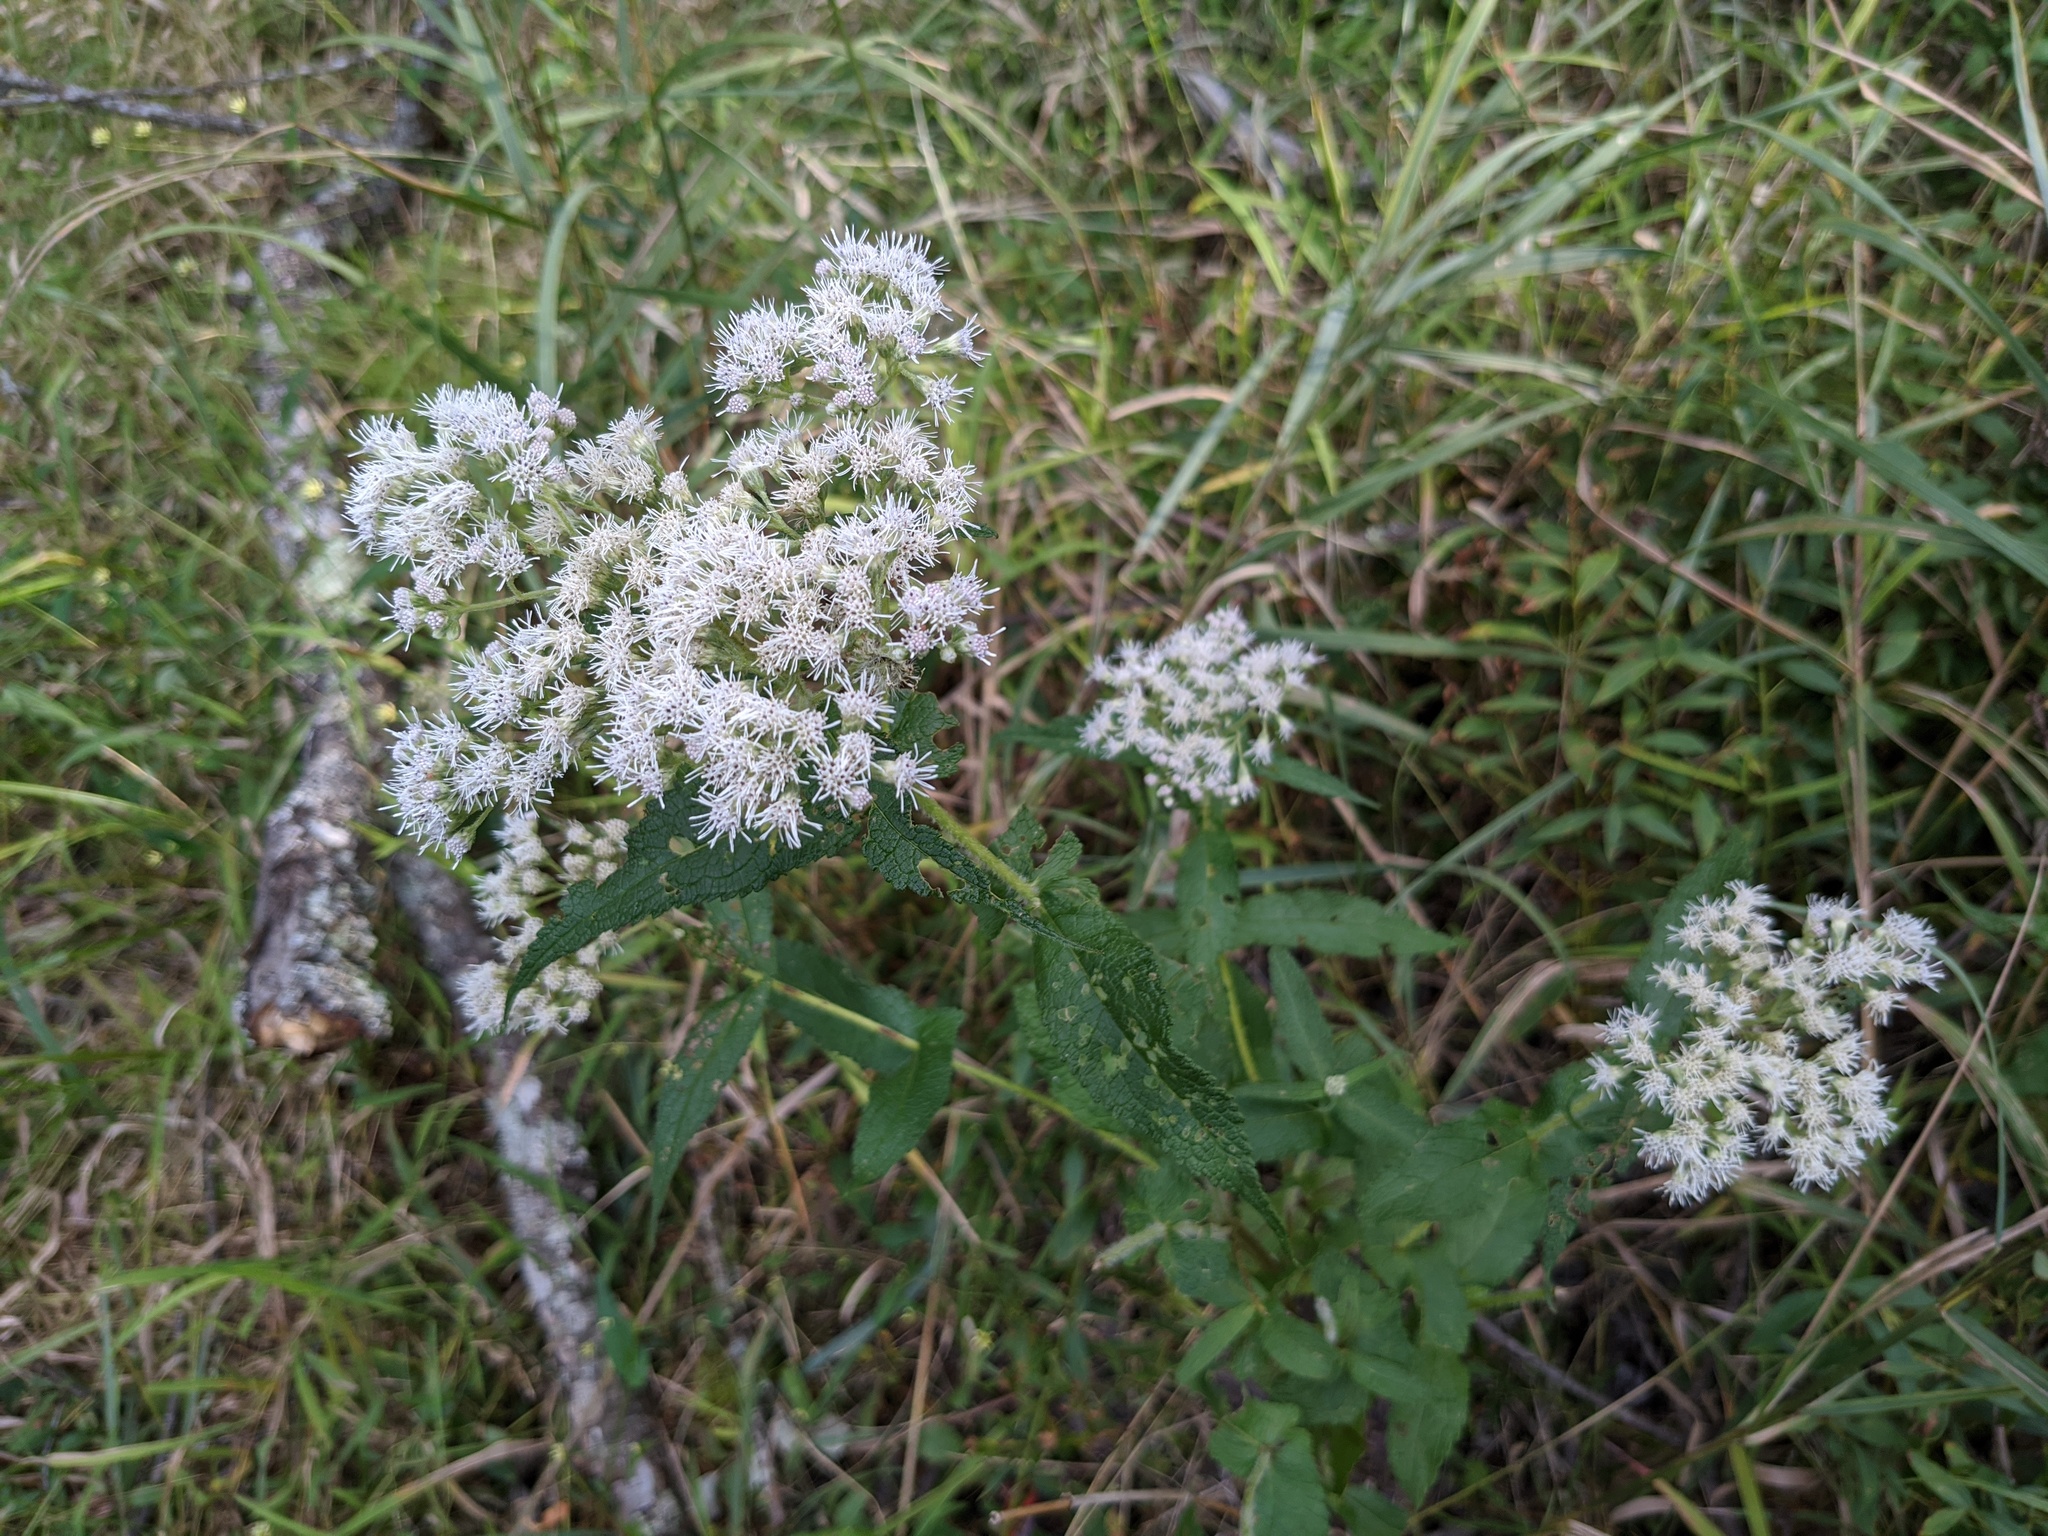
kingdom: Plantae
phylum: Tracheophyta
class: Magnoliopsida
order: Asterales
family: Asteraceae
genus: Eupatorium
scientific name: Eupatorium perfoliatum
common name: Boneset
